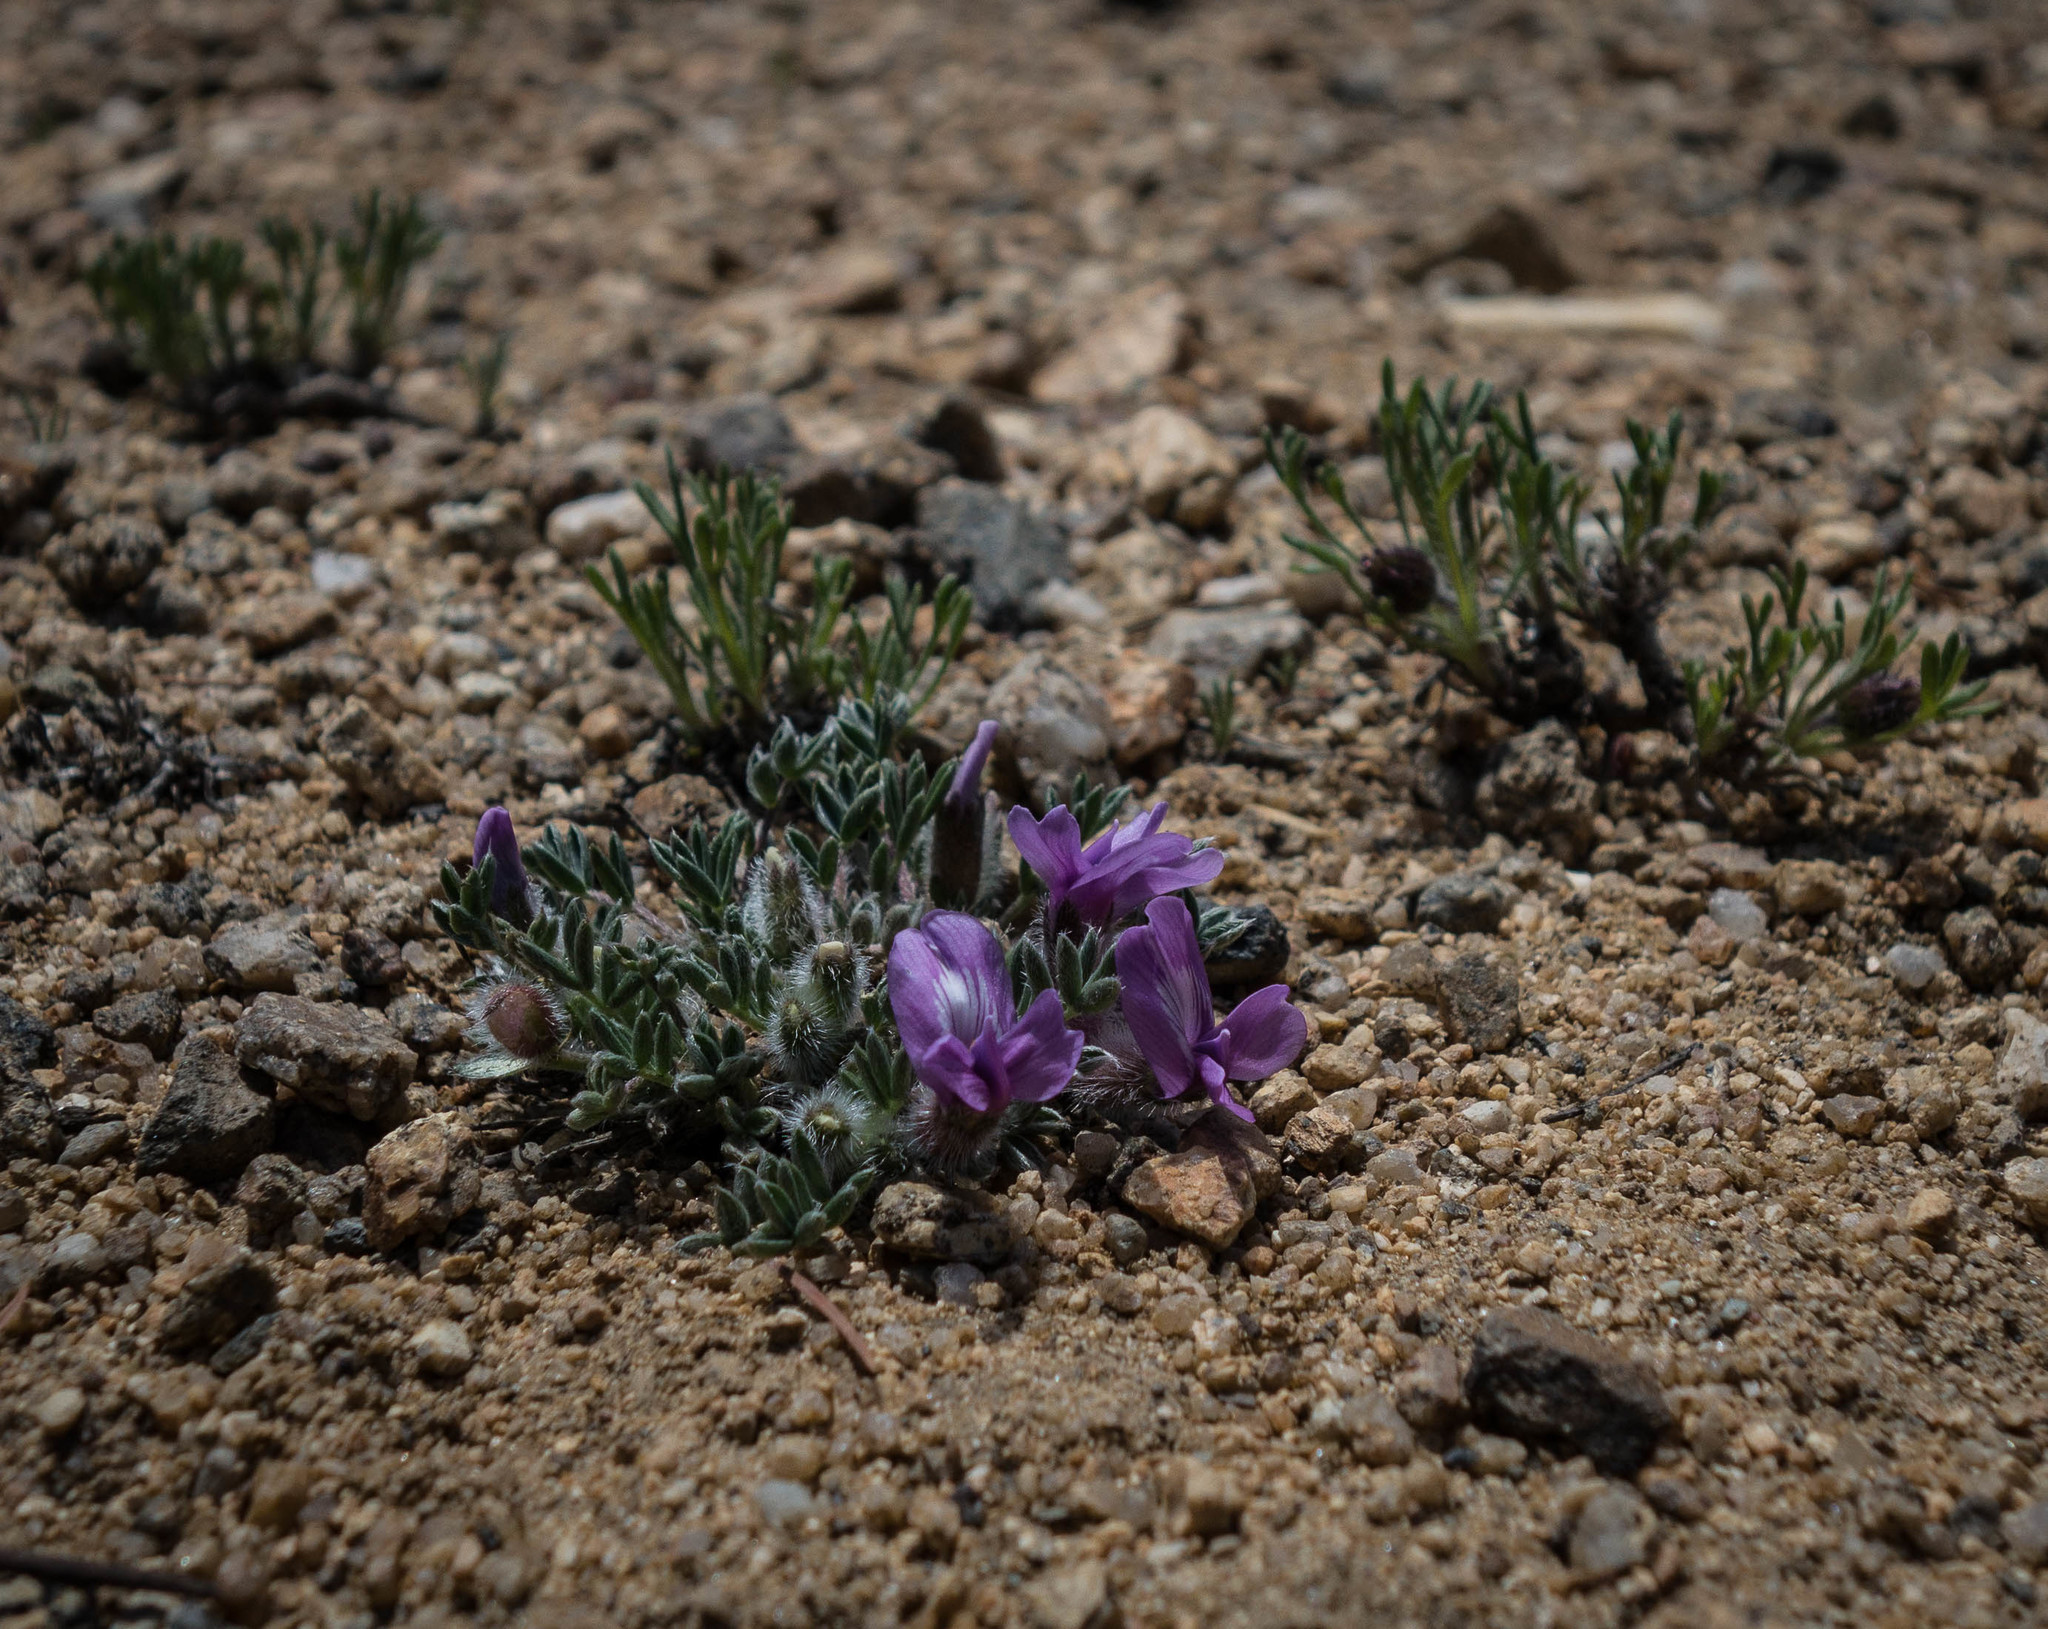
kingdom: Plantae
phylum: Tracheophyta
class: Magnoliopsida
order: Fabales
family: Fabaceae
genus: Oxytropis
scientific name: Oxytropis multiceps
